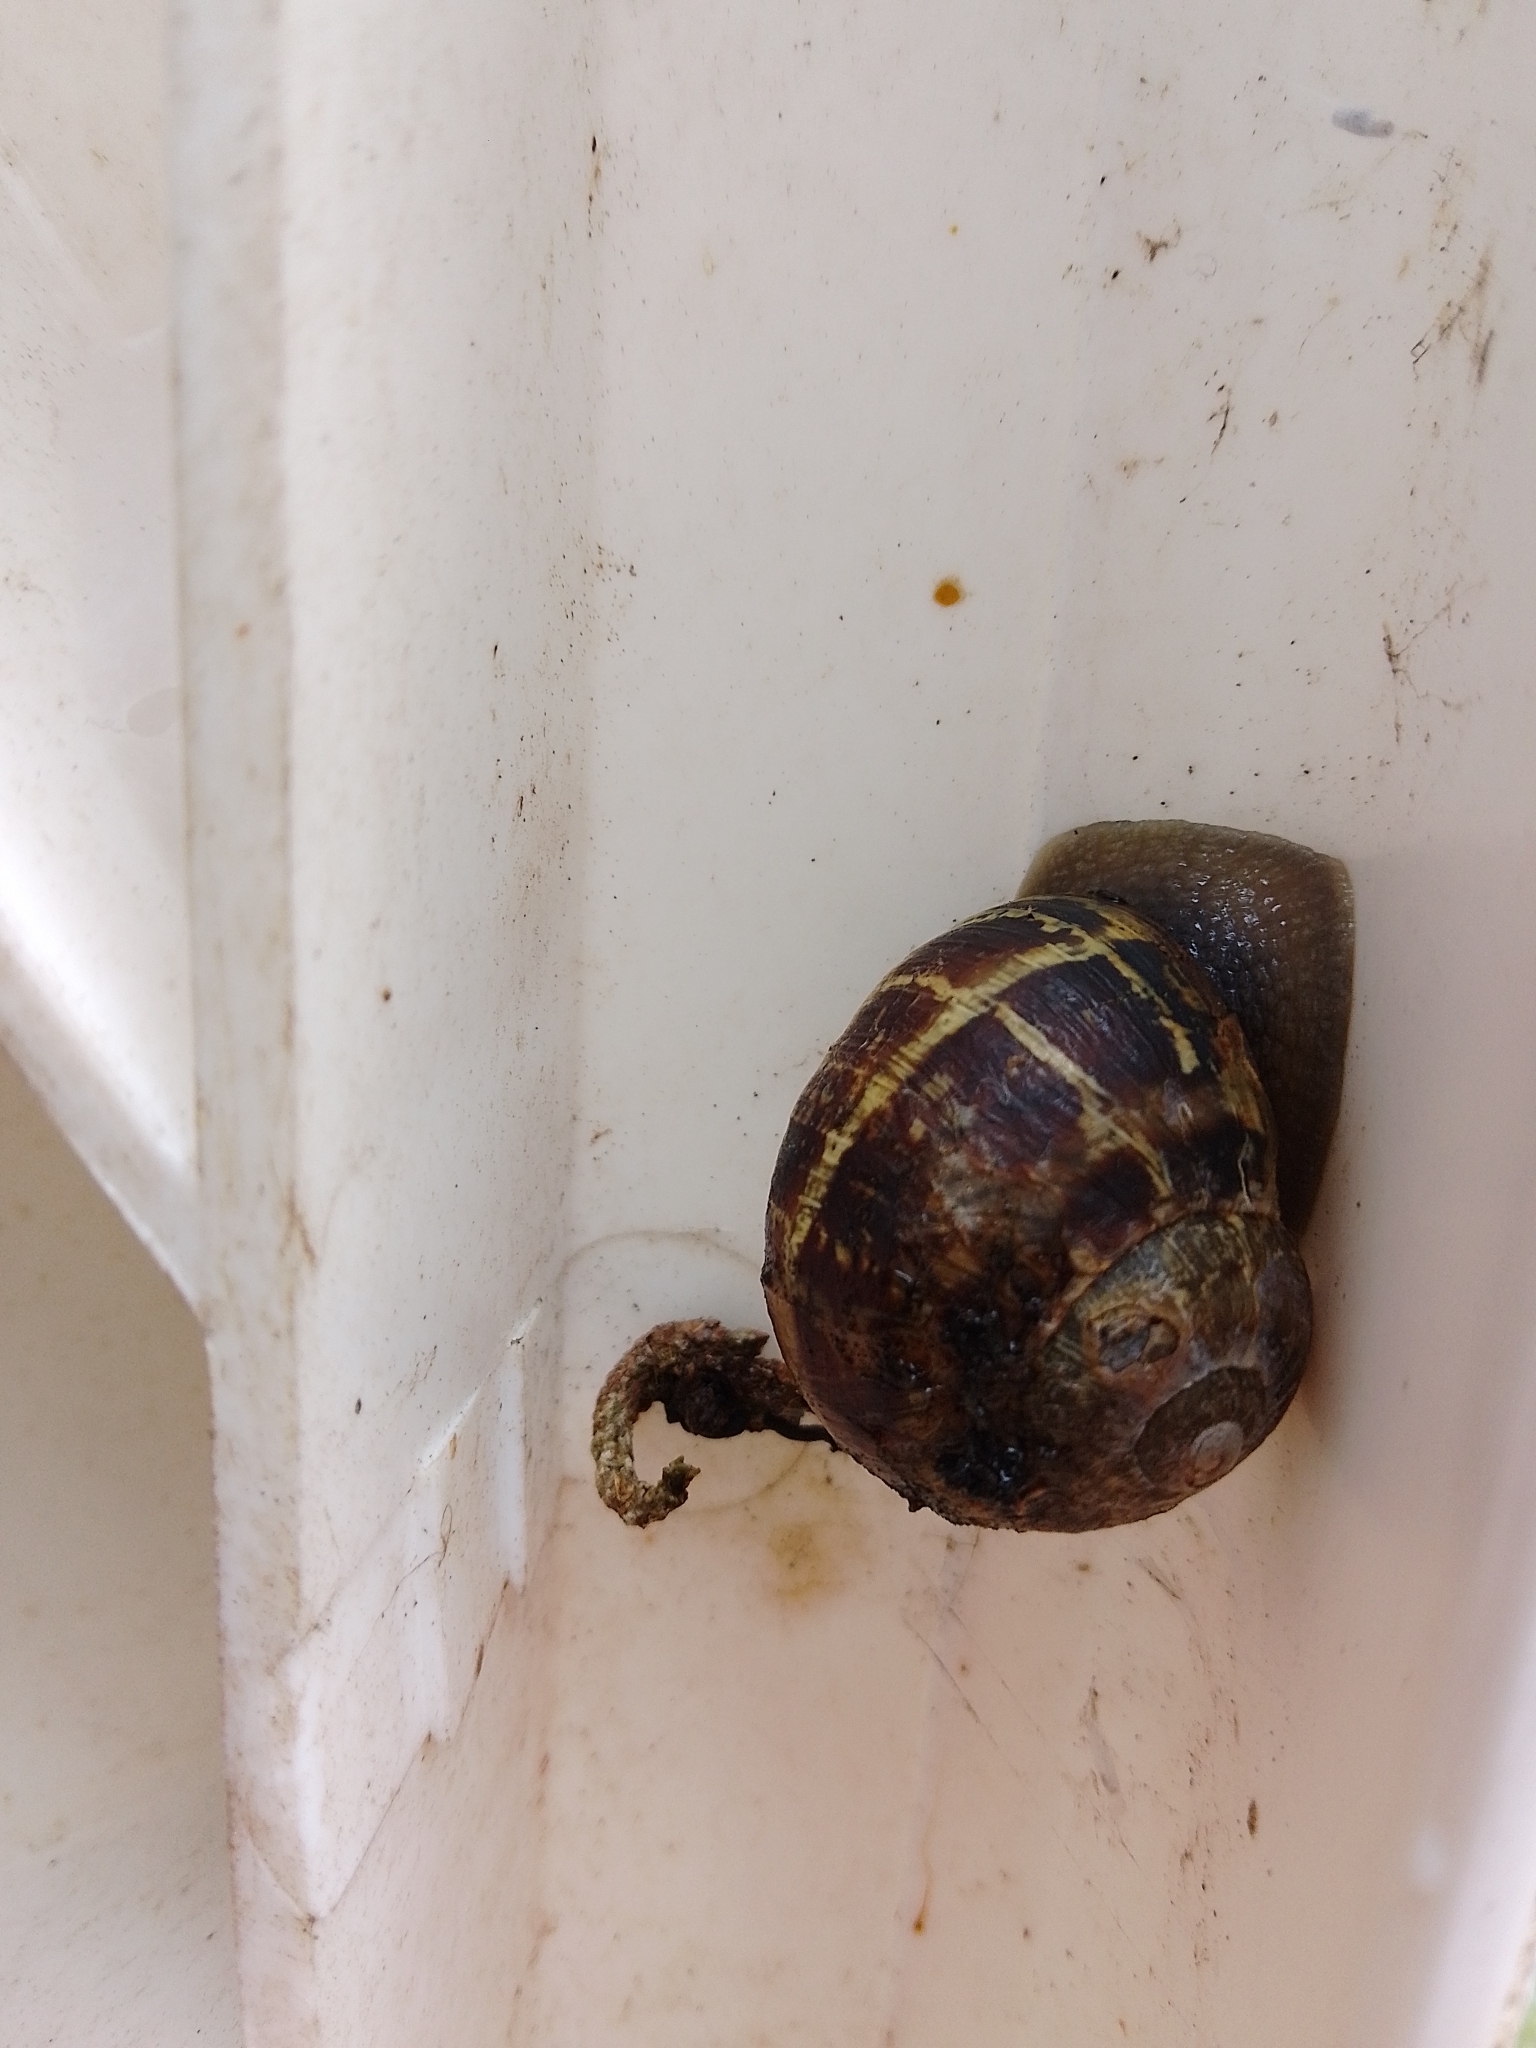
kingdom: Animalia
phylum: Mollusca
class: Gastropoda
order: Stylommatophora
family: Helicidae
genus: Cornu
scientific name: Cornu aspersum
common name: Brown garden snail
